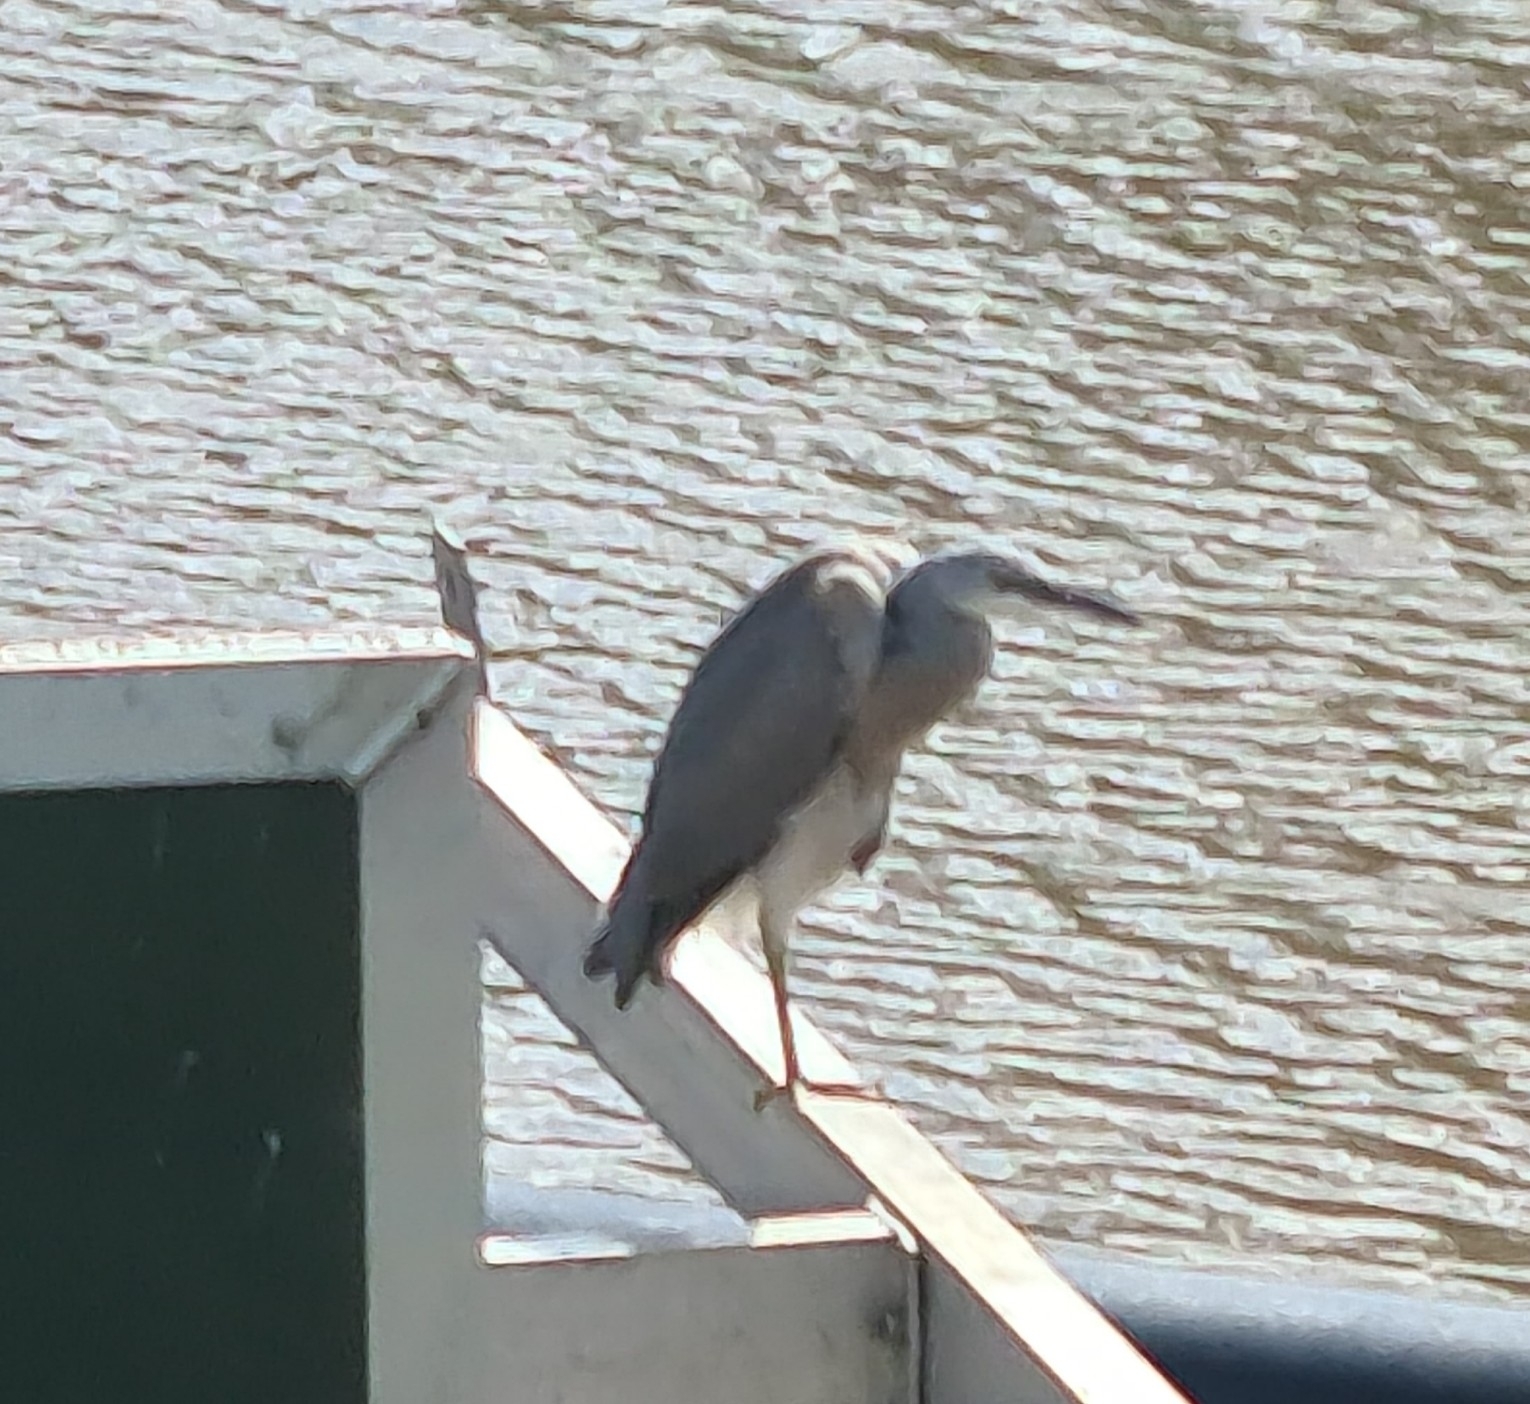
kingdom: Animalia
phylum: Chordata
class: Aves
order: Pelecaniformes
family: Ardeidae
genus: Egretta
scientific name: Egretta novaehollandiae
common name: White-faced heron
